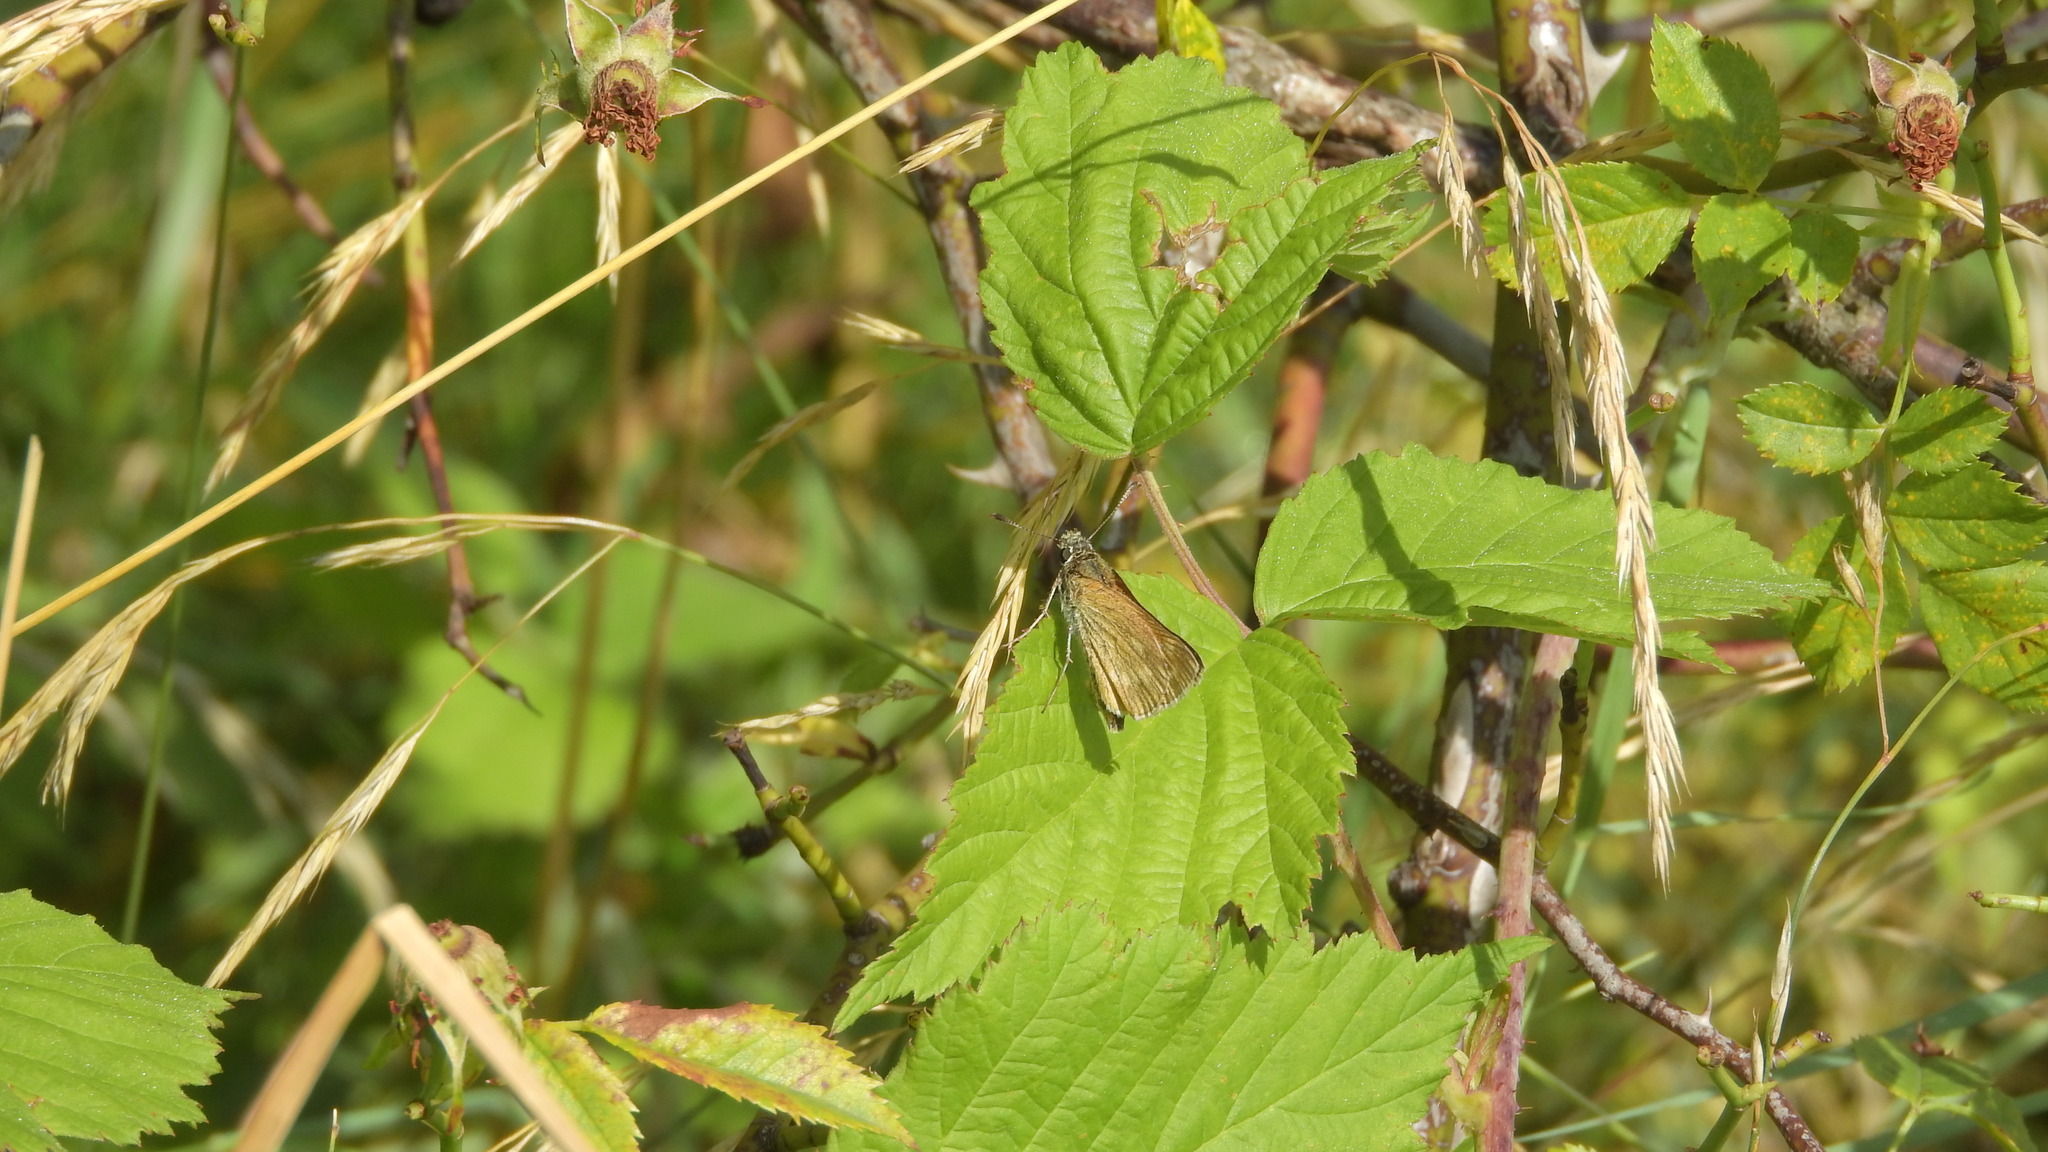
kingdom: Animalia
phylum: Arthropoda
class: Insecta
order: Lepidoptera
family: Hesperiidae
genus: Ochlodes
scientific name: Ochlodes venata
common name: Large skipper
